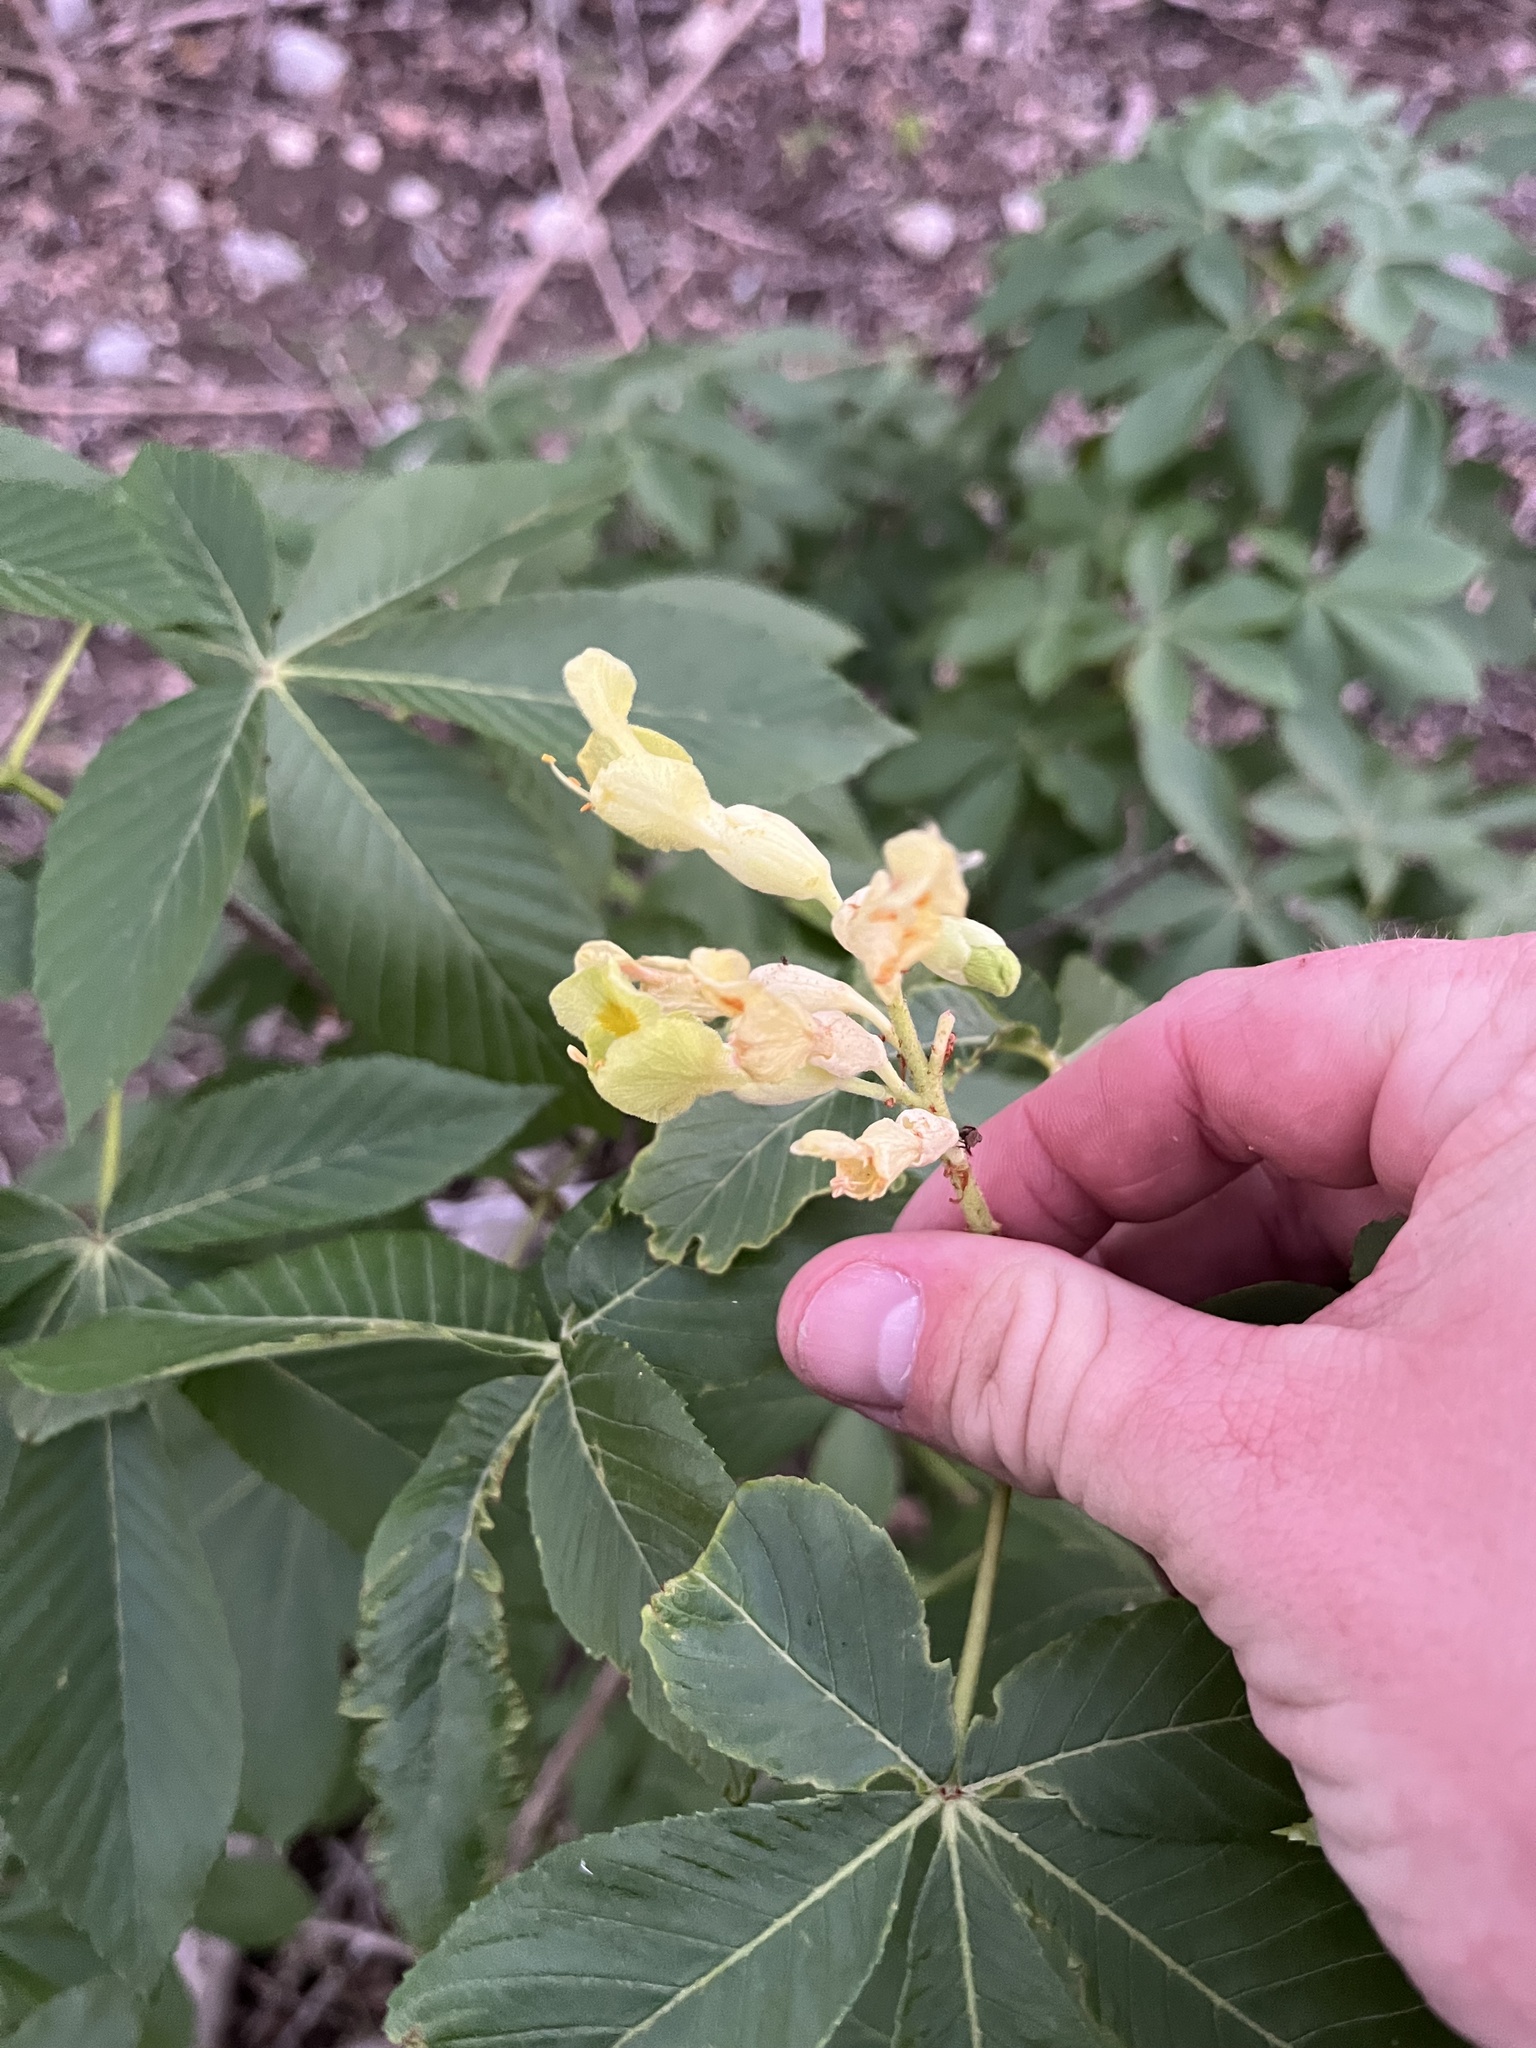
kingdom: Plantae
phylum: Tracheophyta
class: Magnoliopsida
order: Sapindales
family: Sapindaceae
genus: Aesculus
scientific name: Aesculus pavia
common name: Red buckeye
